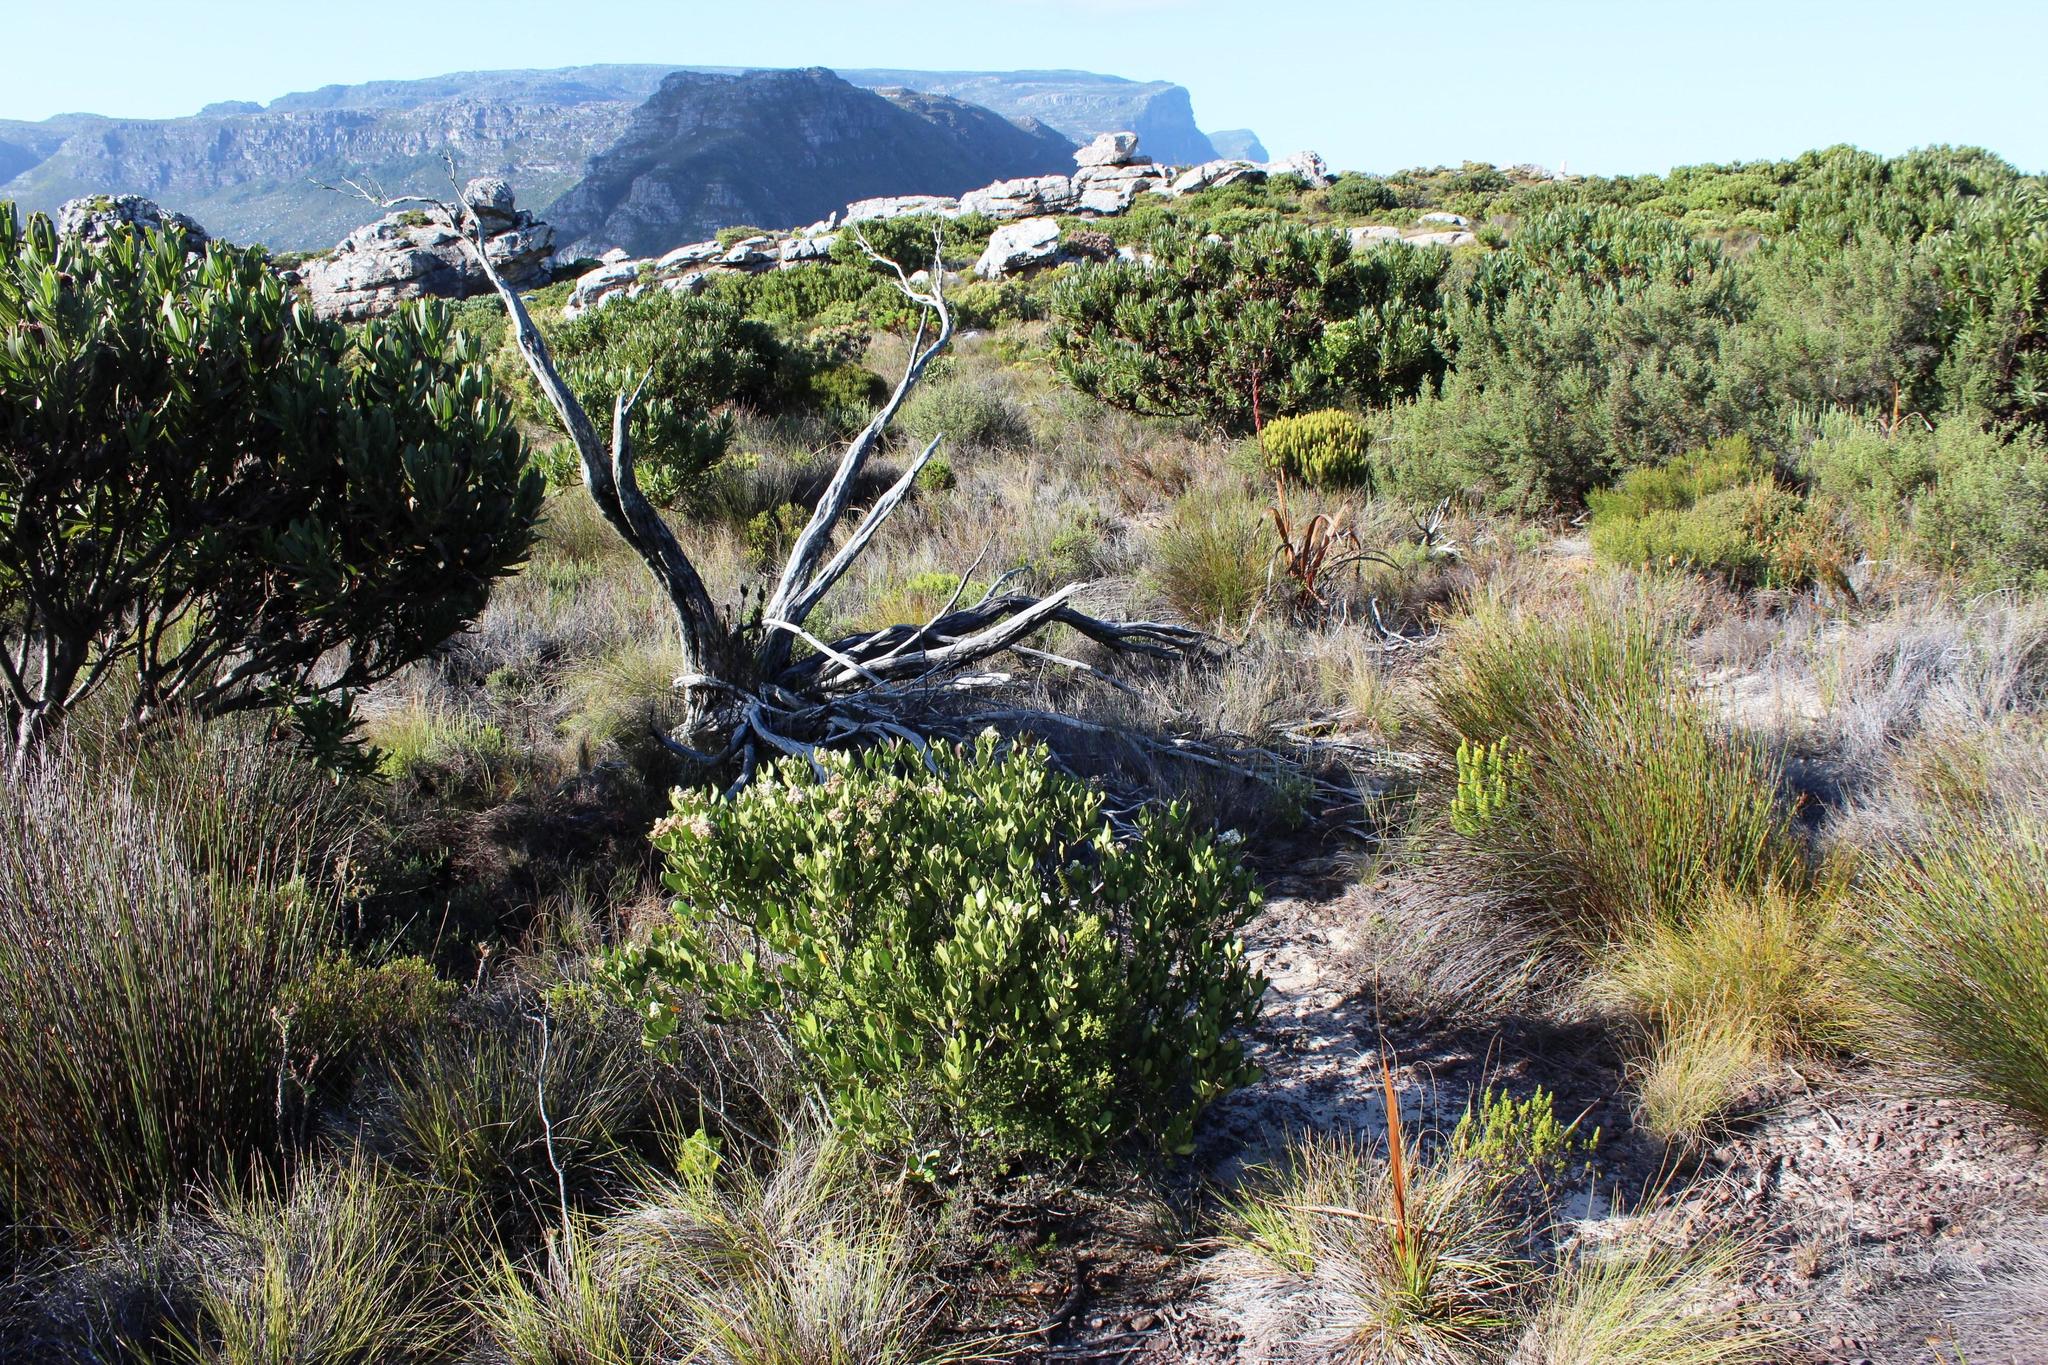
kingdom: Plantae
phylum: Tracheophyta
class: Magnoliopsida
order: Lamiales
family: Oleaceae
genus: Olea
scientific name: Olea capensis
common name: Black ironwood
